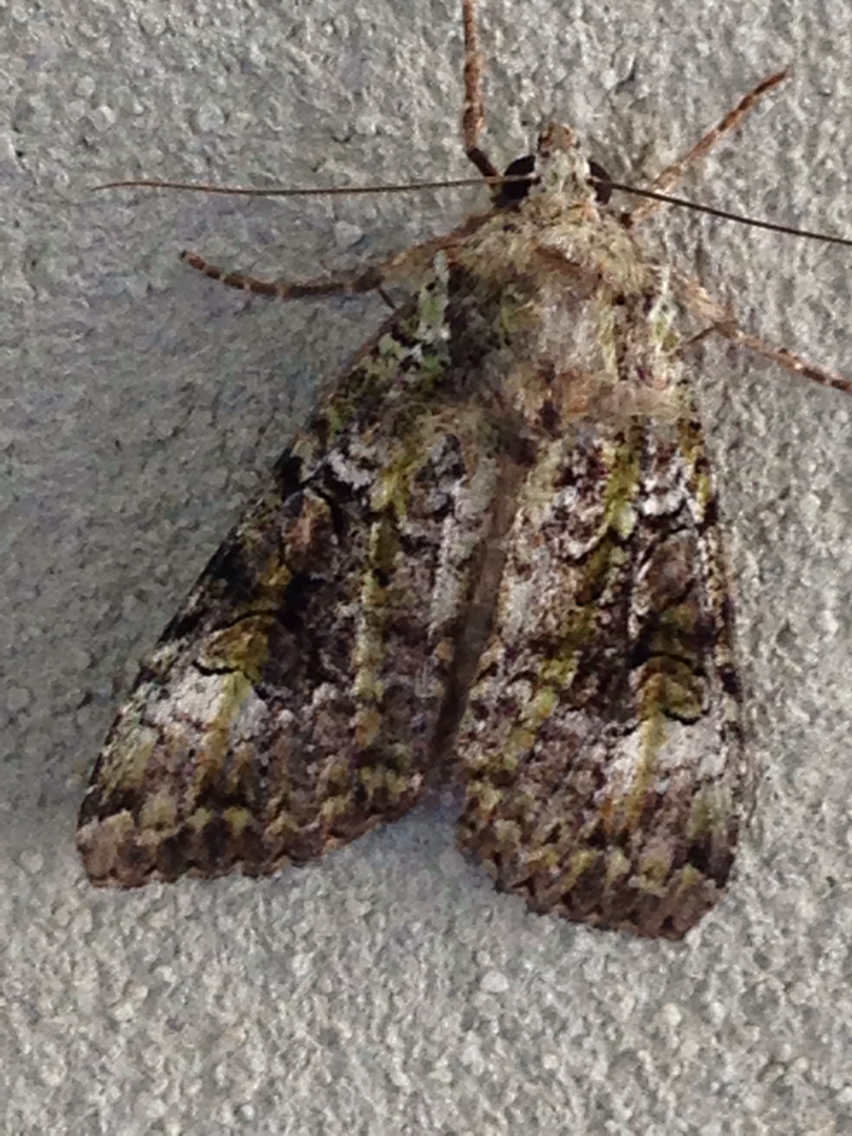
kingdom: Animalia
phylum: Arthropoda
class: Insecta
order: Lepidoptera
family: Noctuidae
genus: Anaplectoides
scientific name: Anaplectoides prasina
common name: Green arches
